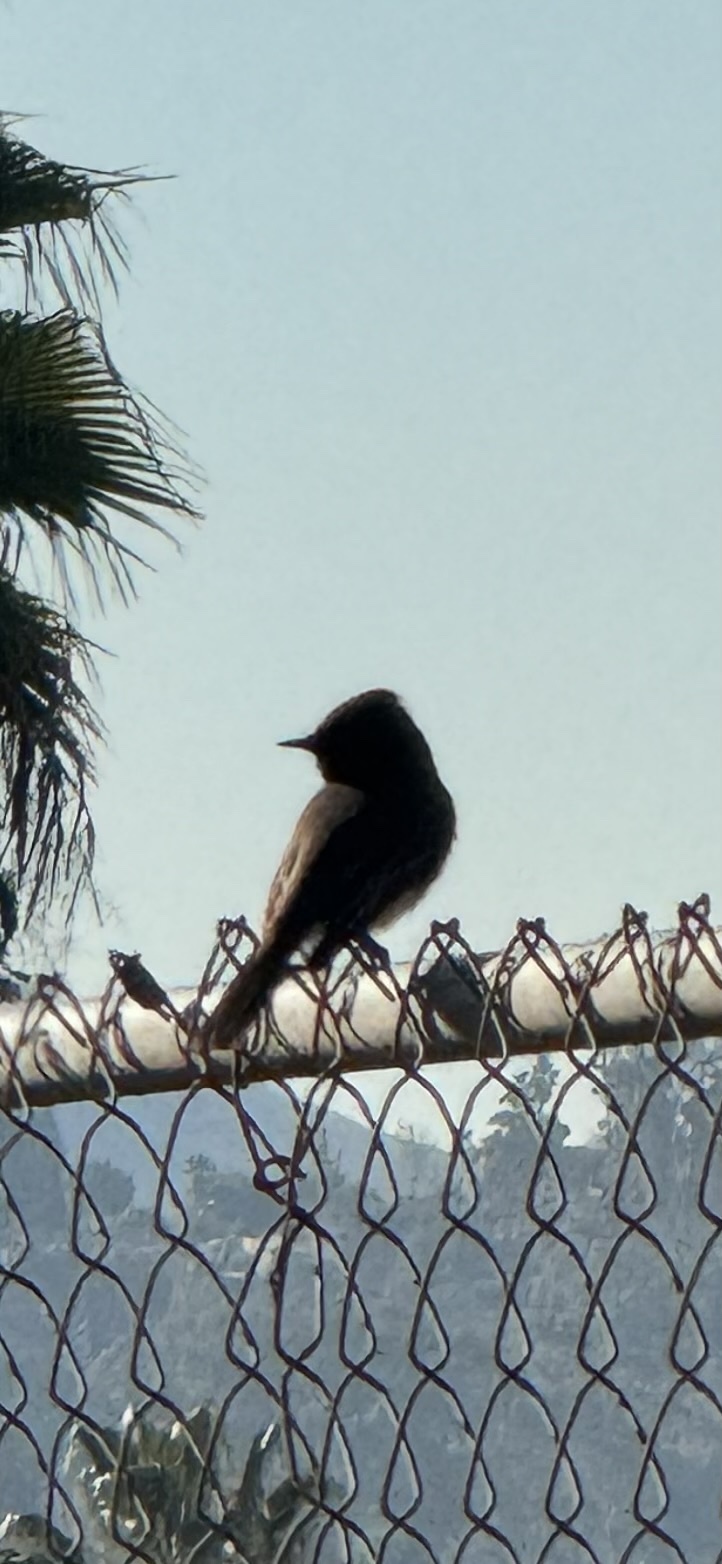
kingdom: Animalia
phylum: Chordata
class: Aves
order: Passeriformes
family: Tyrannidae
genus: Sayornis
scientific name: Sayornis nigricans
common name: Black phoebe
